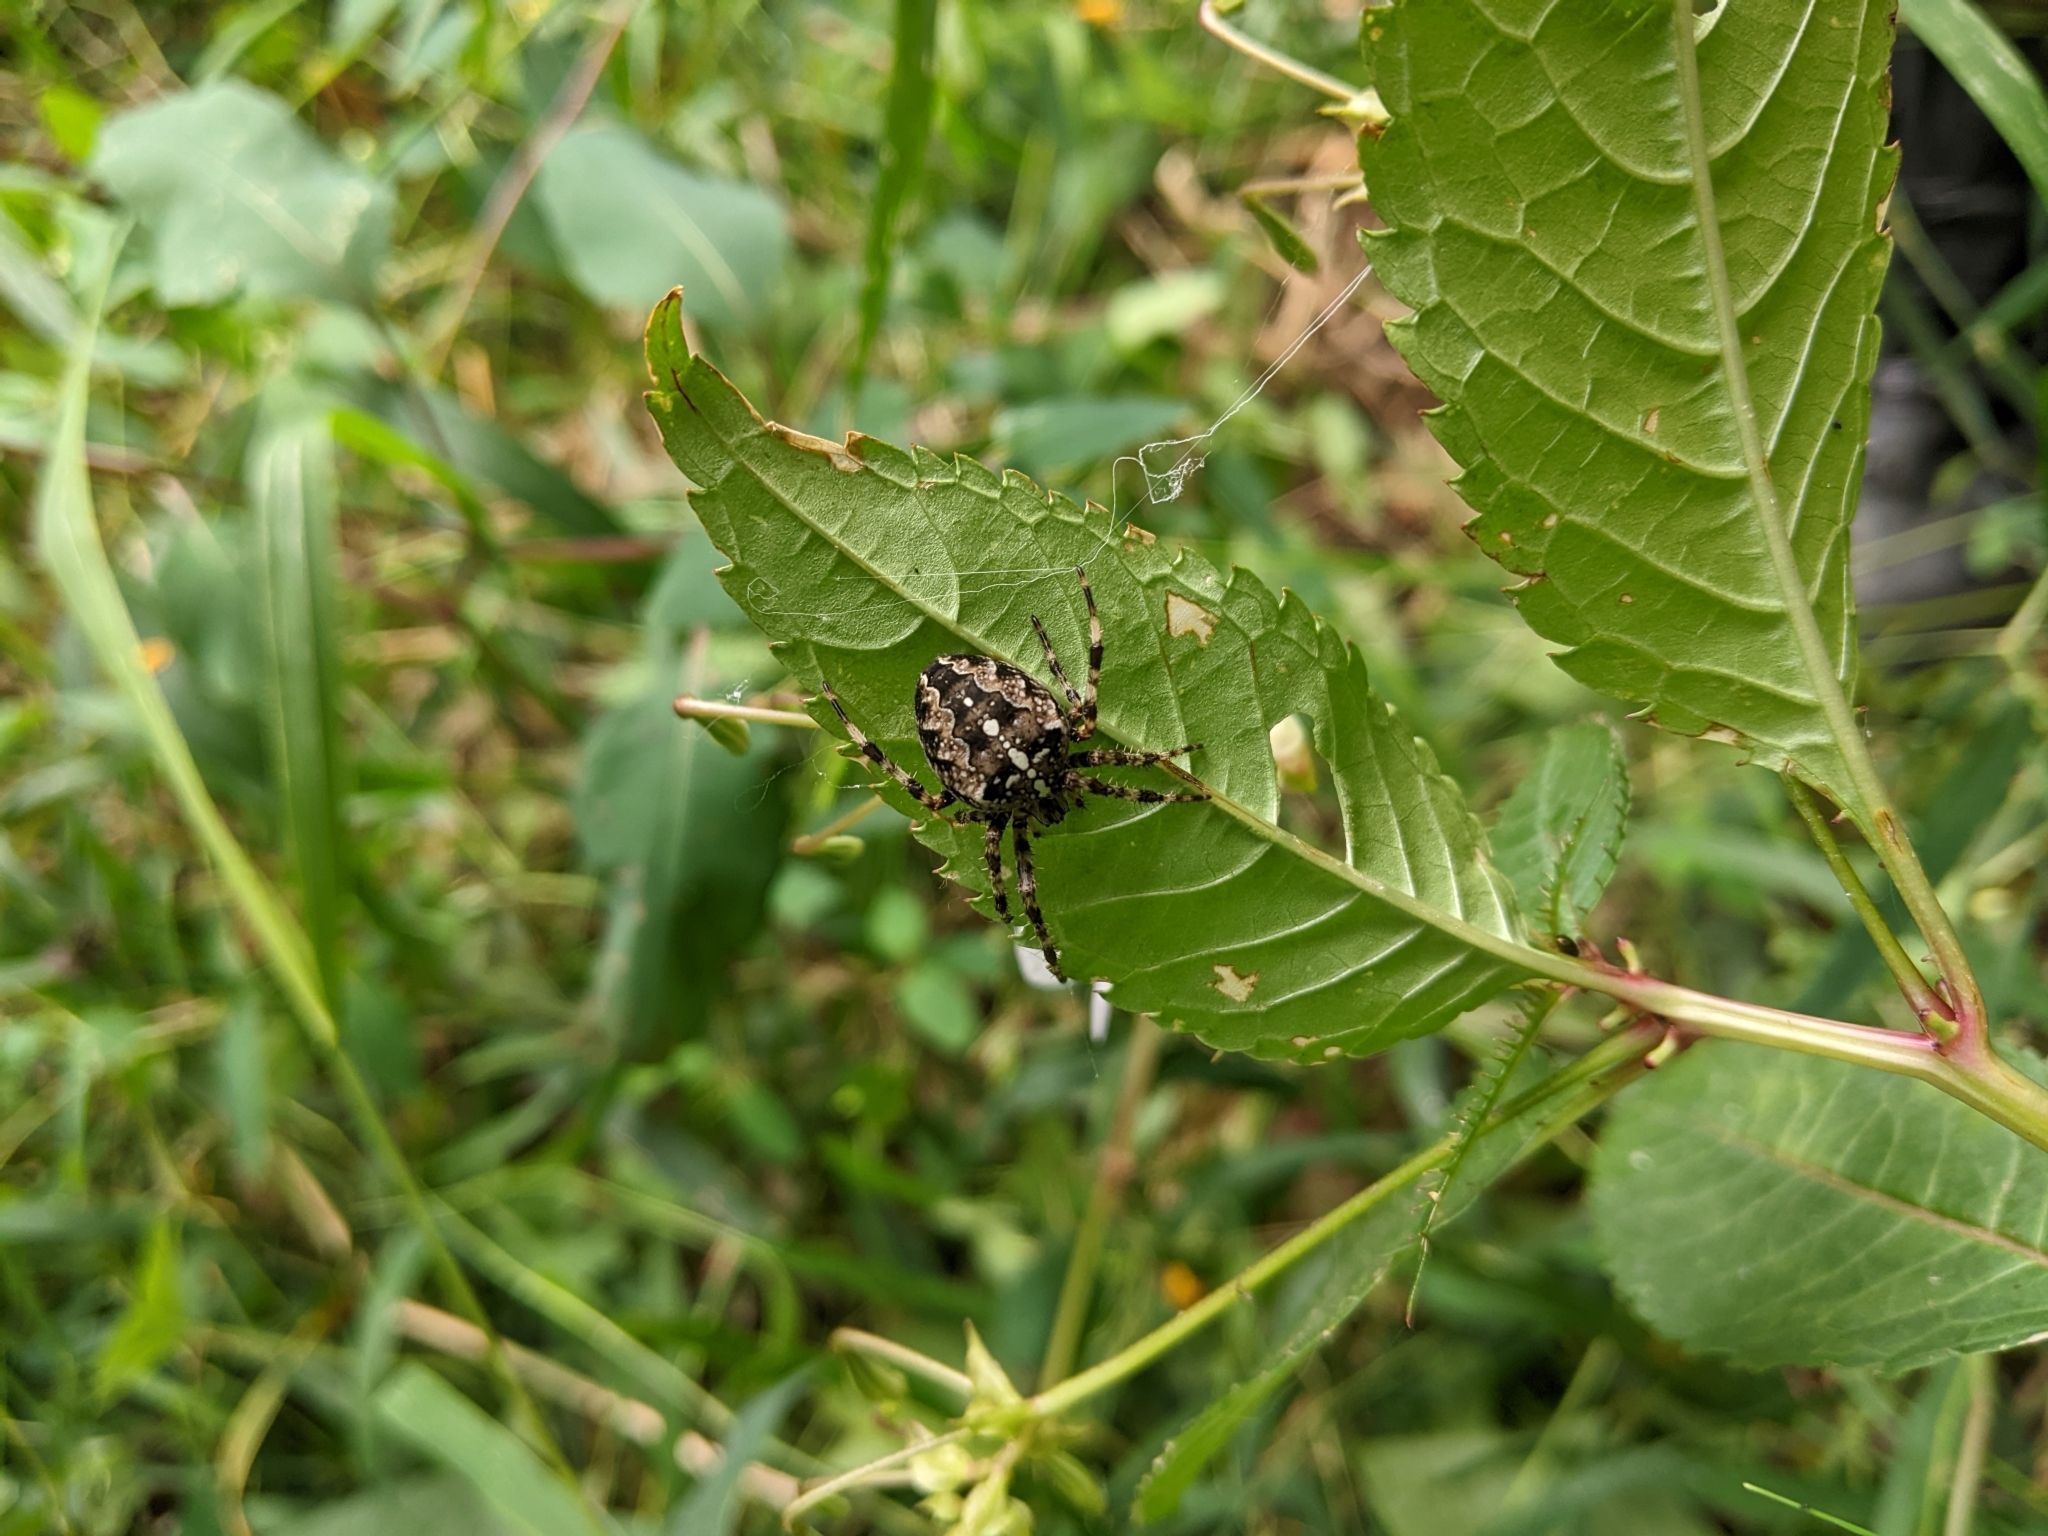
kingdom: Animalia
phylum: Arthropoda
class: Arachnida
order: Araneae
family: Araneidae
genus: Araneus
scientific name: Araneus diadematus
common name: Cross orbweaver
